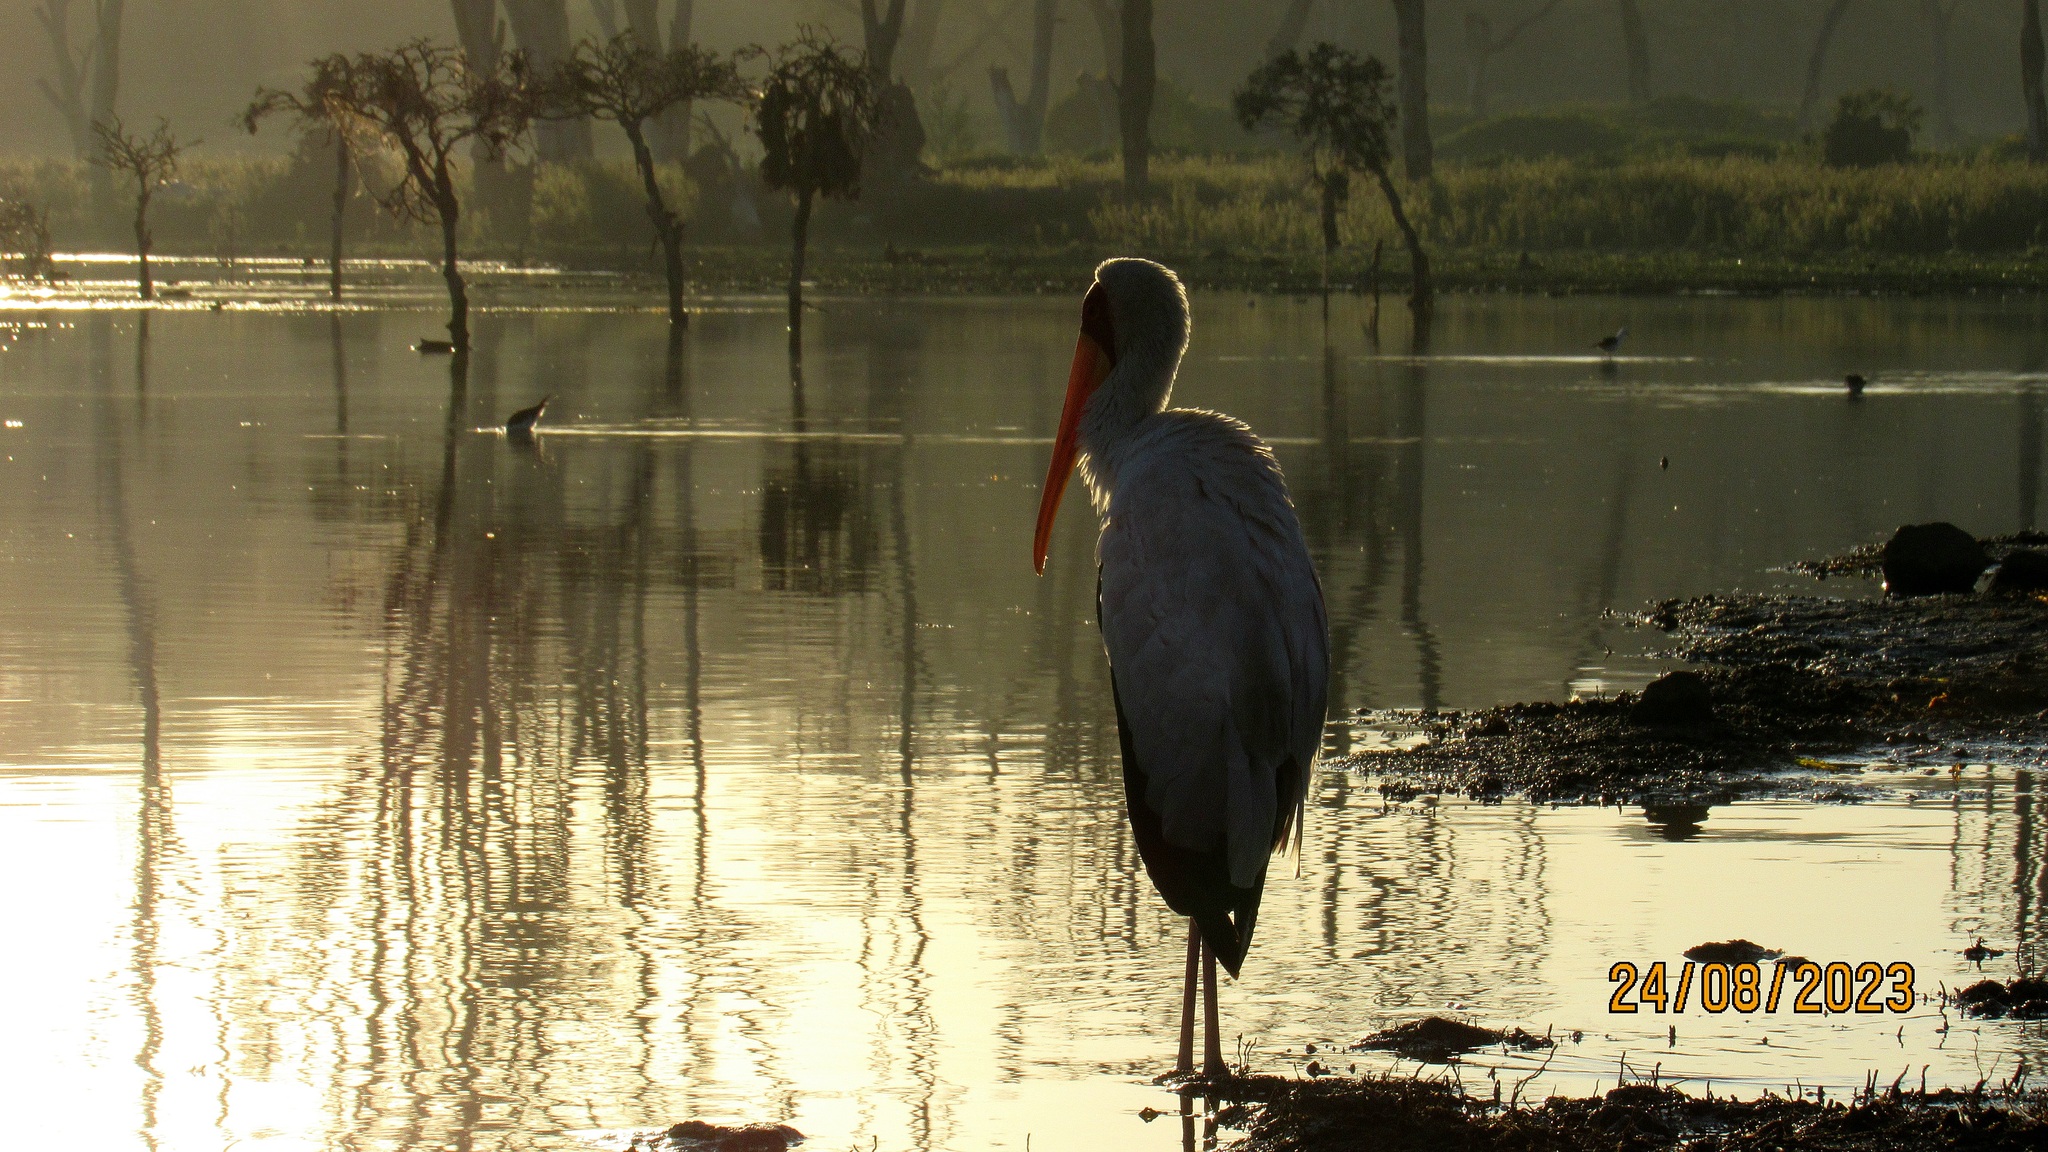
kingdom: Animalia
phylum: Chordata
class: Aves
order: Ciconiiformes
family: Ciconiidae
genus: Mycteria
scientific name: Mycteria ibis
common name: Yellow-billed stork
